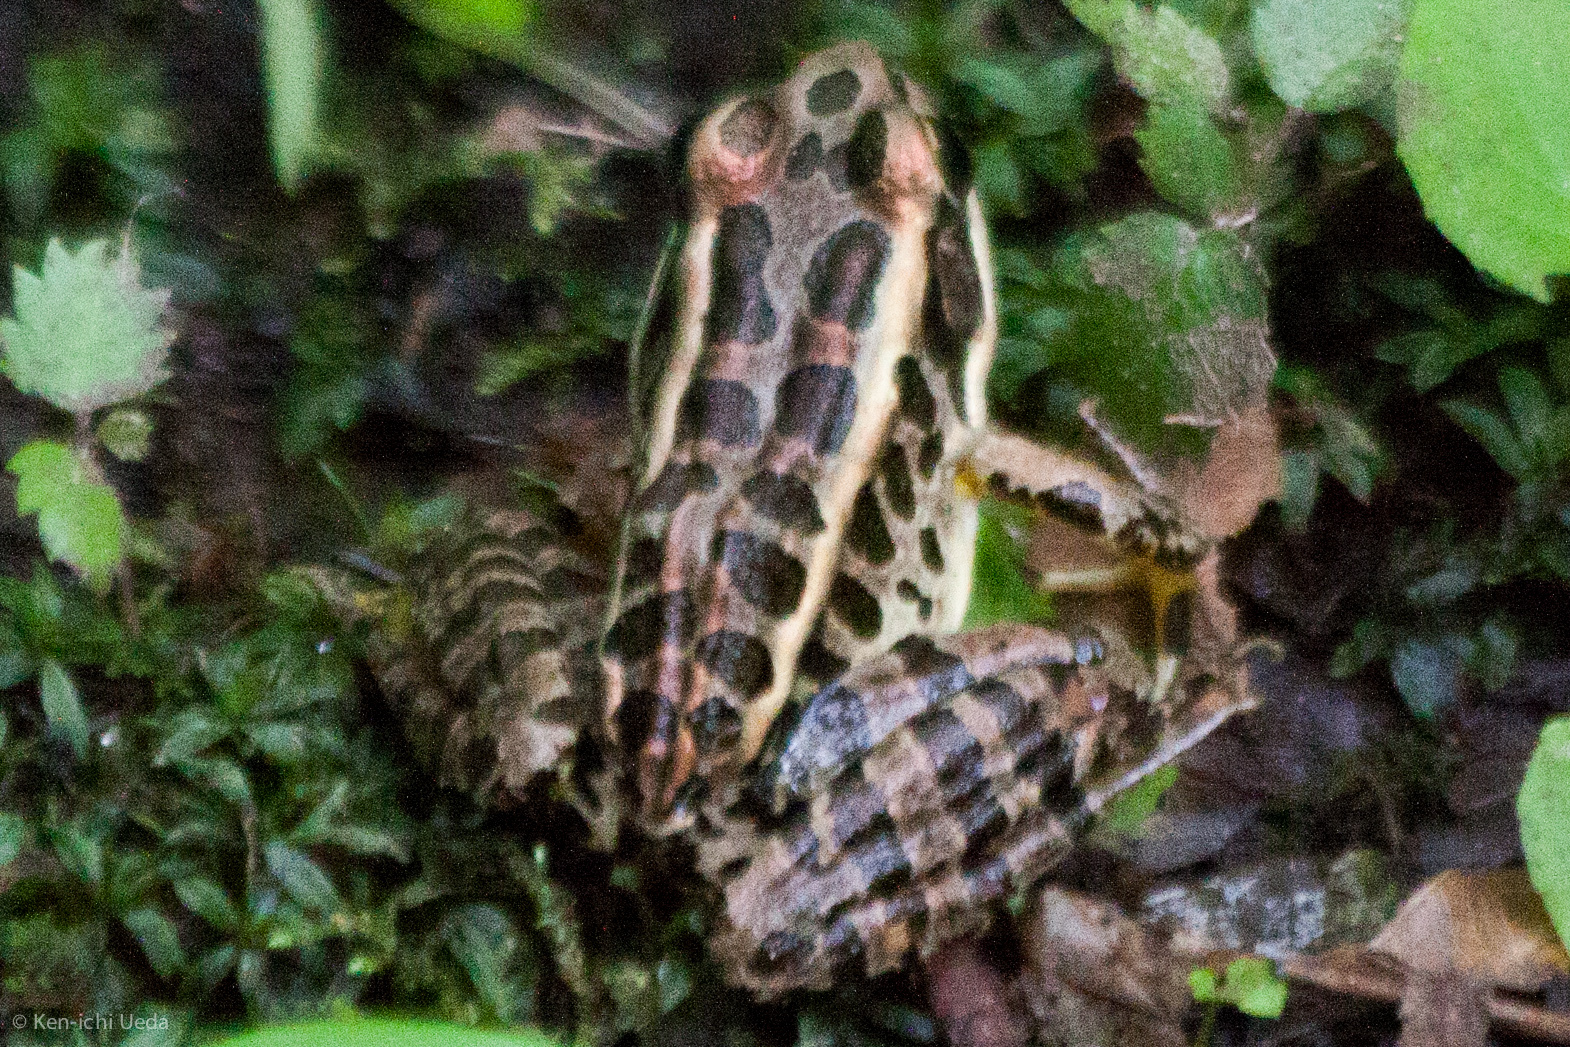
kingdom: Animalia
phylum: Chordata
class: Amphibia
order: Anura
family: Ranidae
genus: Lithobates
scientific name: Lithobates palustris
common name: Pickerel frog
